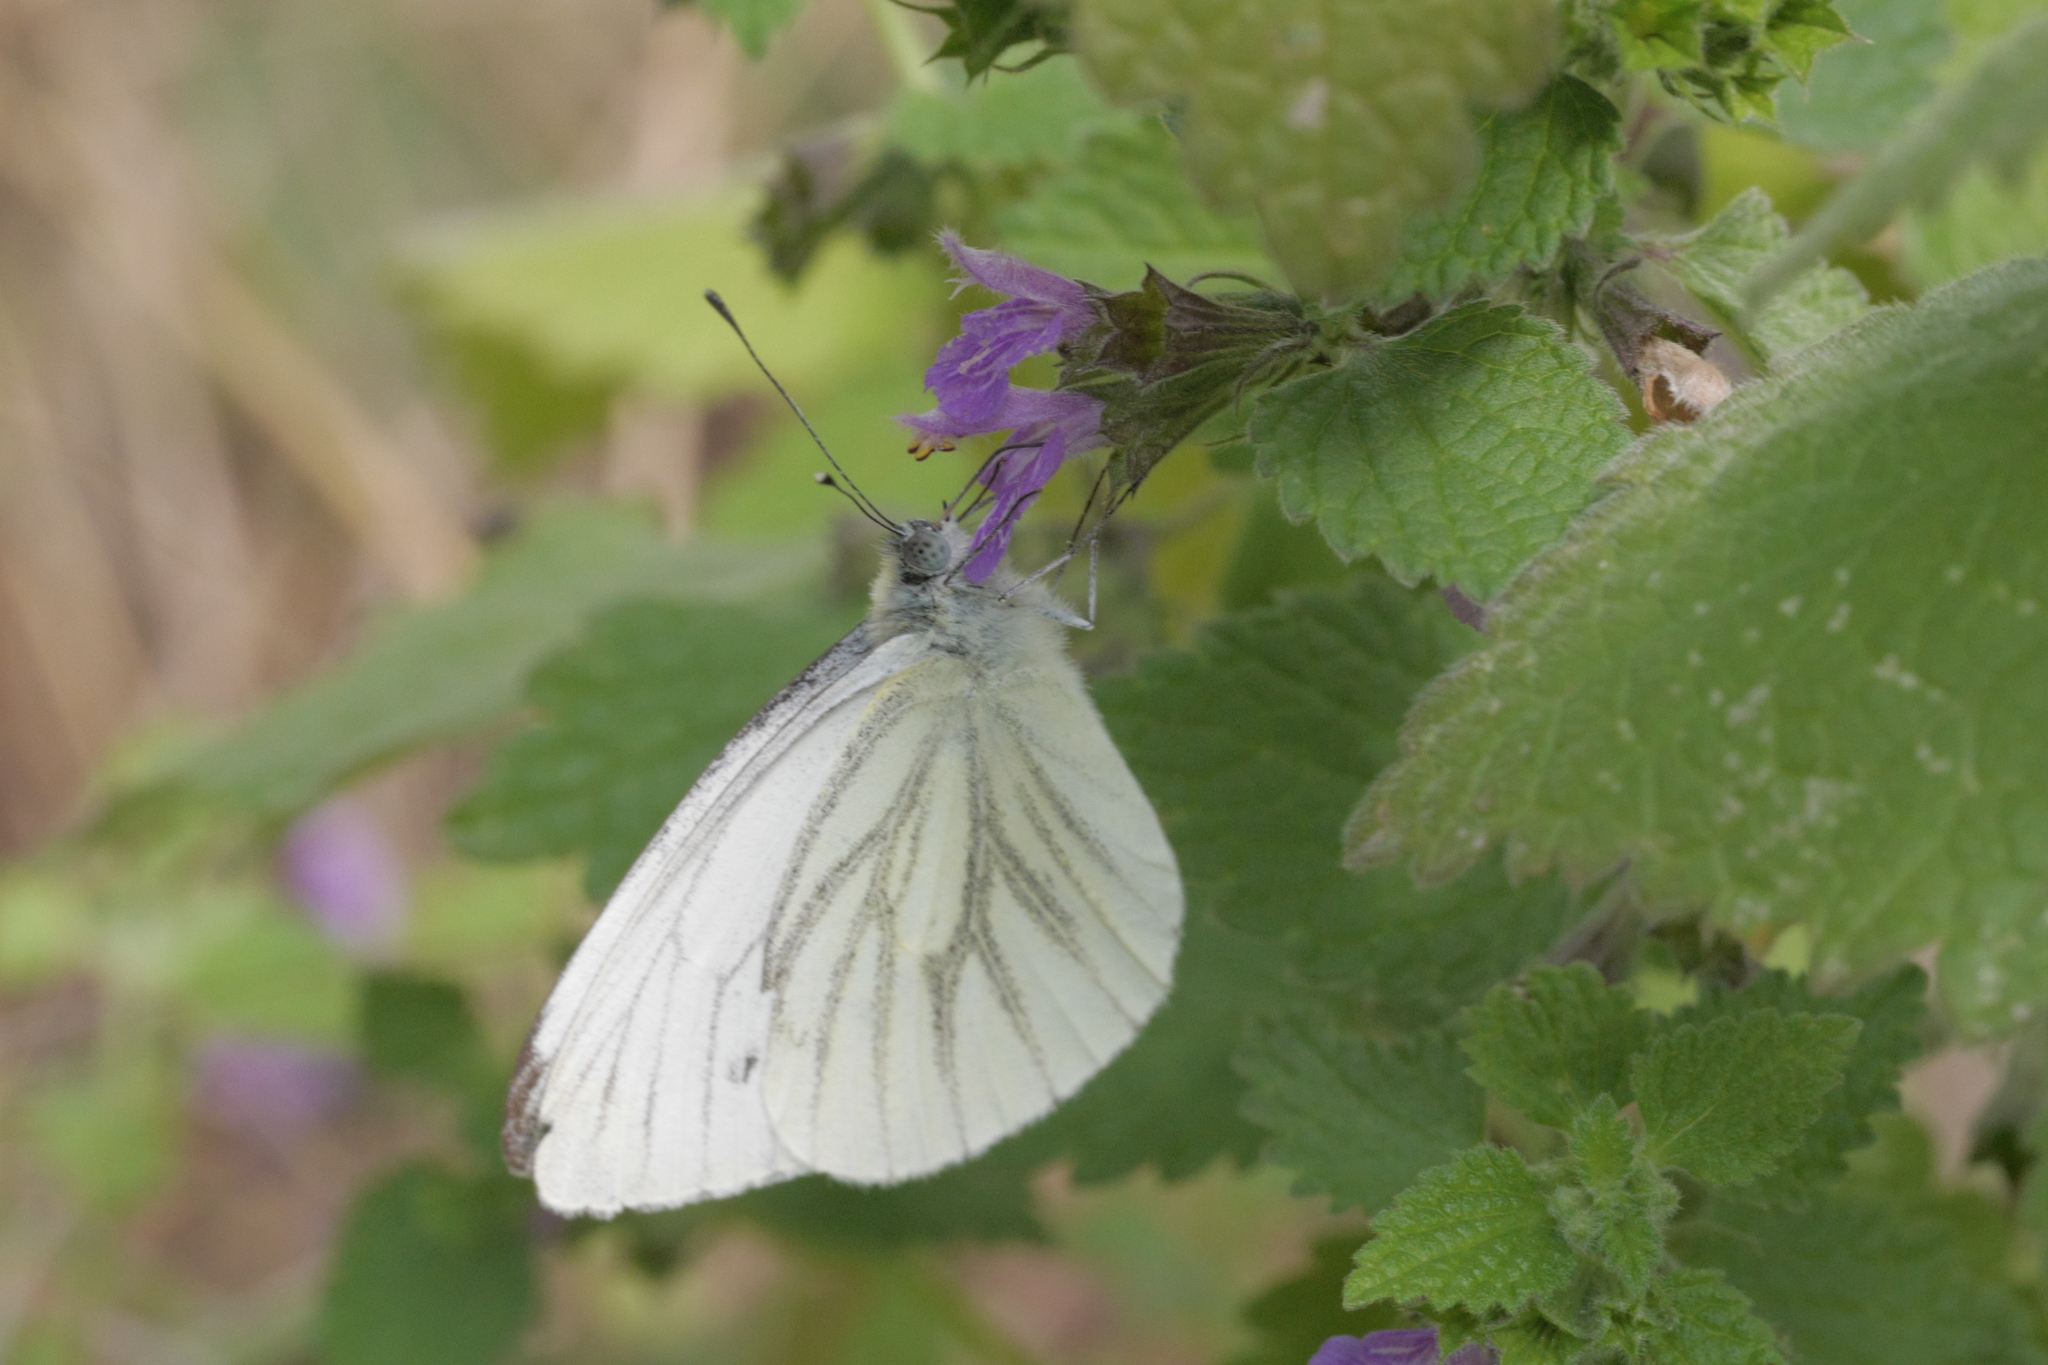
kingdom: Animalia
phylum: Arthropoda
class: Insecta
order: Lepidoptera
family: Pieridae
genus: Pieris
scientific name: Pieris napi
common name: Green-veined white
